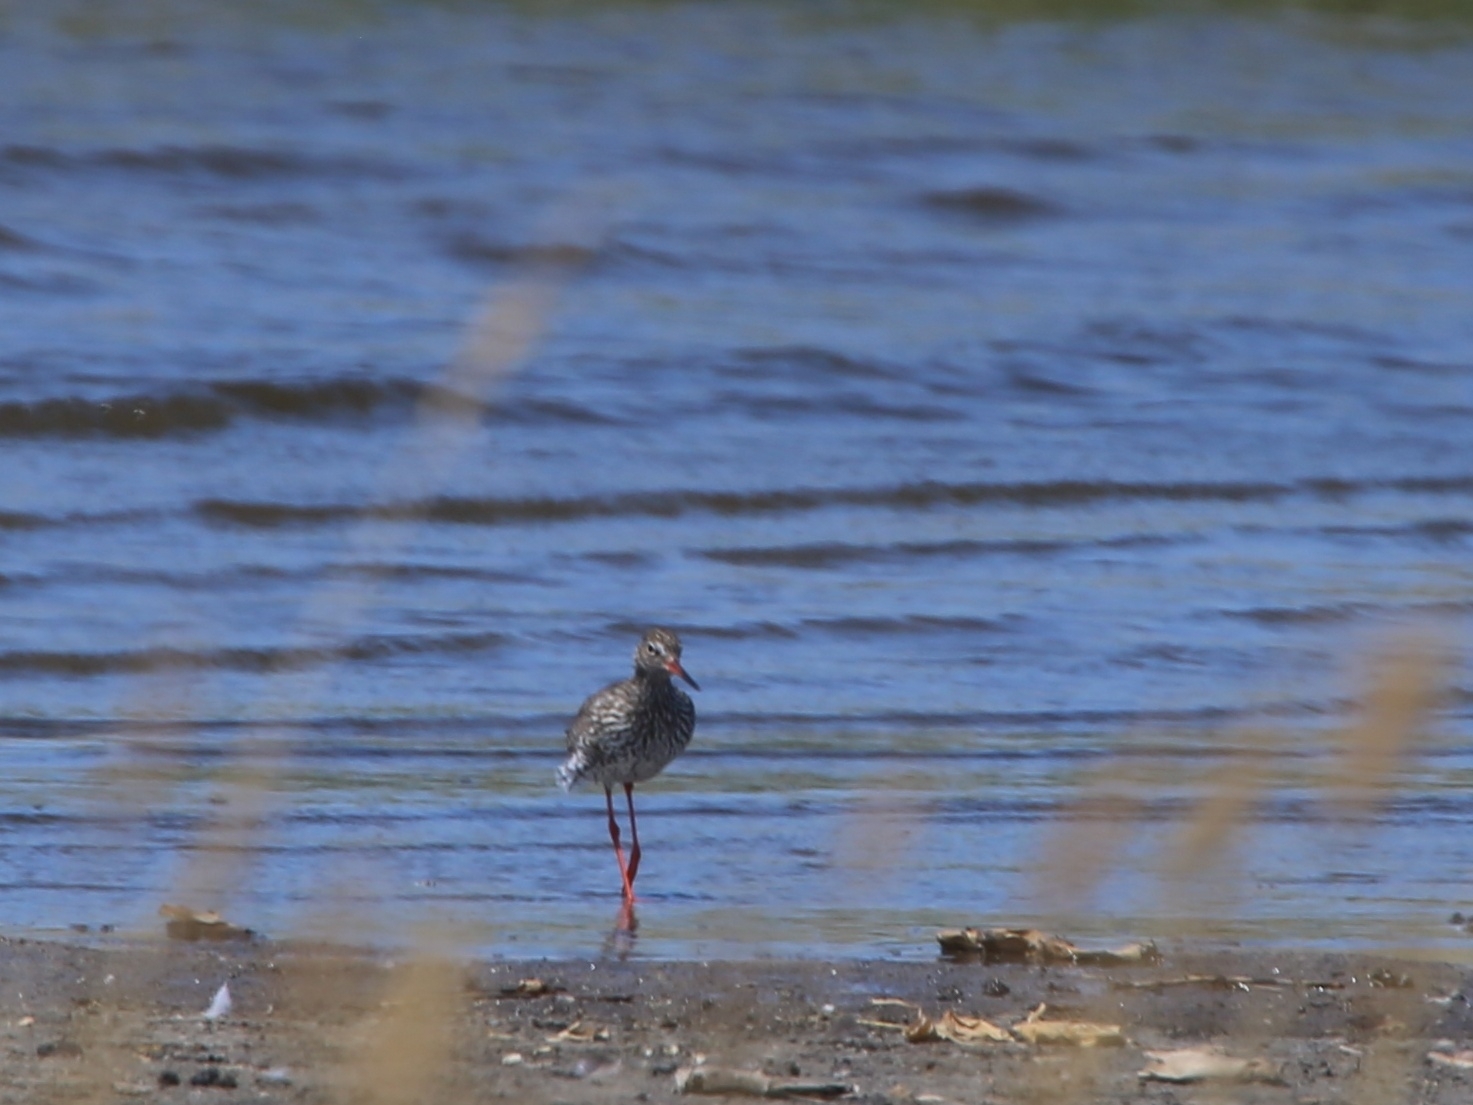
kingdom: Animalia
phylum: Chordata
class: Aves
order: Charadriiformes
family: Scolopacidae
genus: Tringa
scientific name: Tringa totanus
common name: Common redshank
